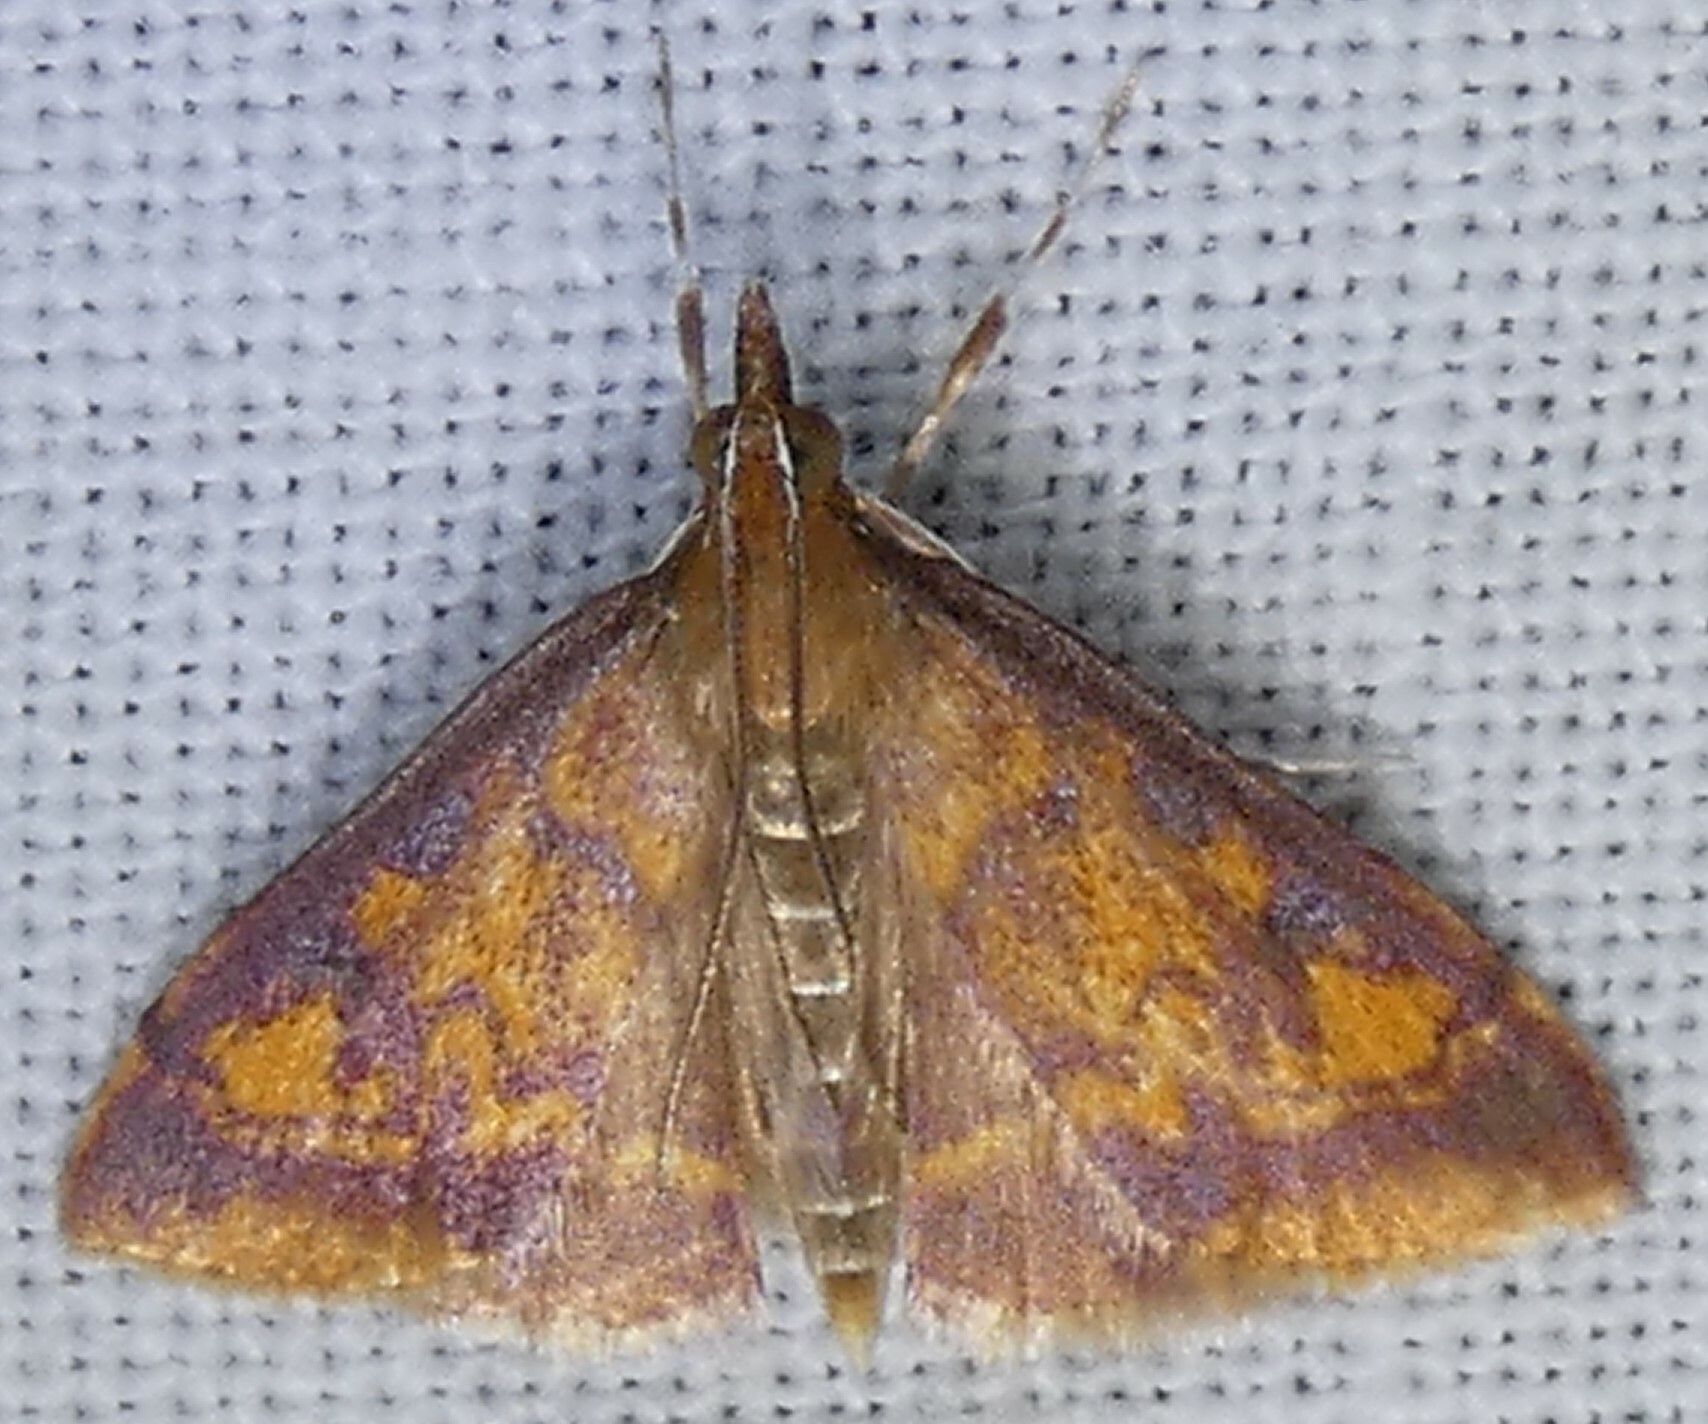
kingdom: Animalia
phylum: Arthropoda
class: Insecta
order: Lepidoptera
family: Crambidae
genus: Pyrausta
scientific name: Pyrausta acrionalis
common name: Mint-loving pyrausta moth
